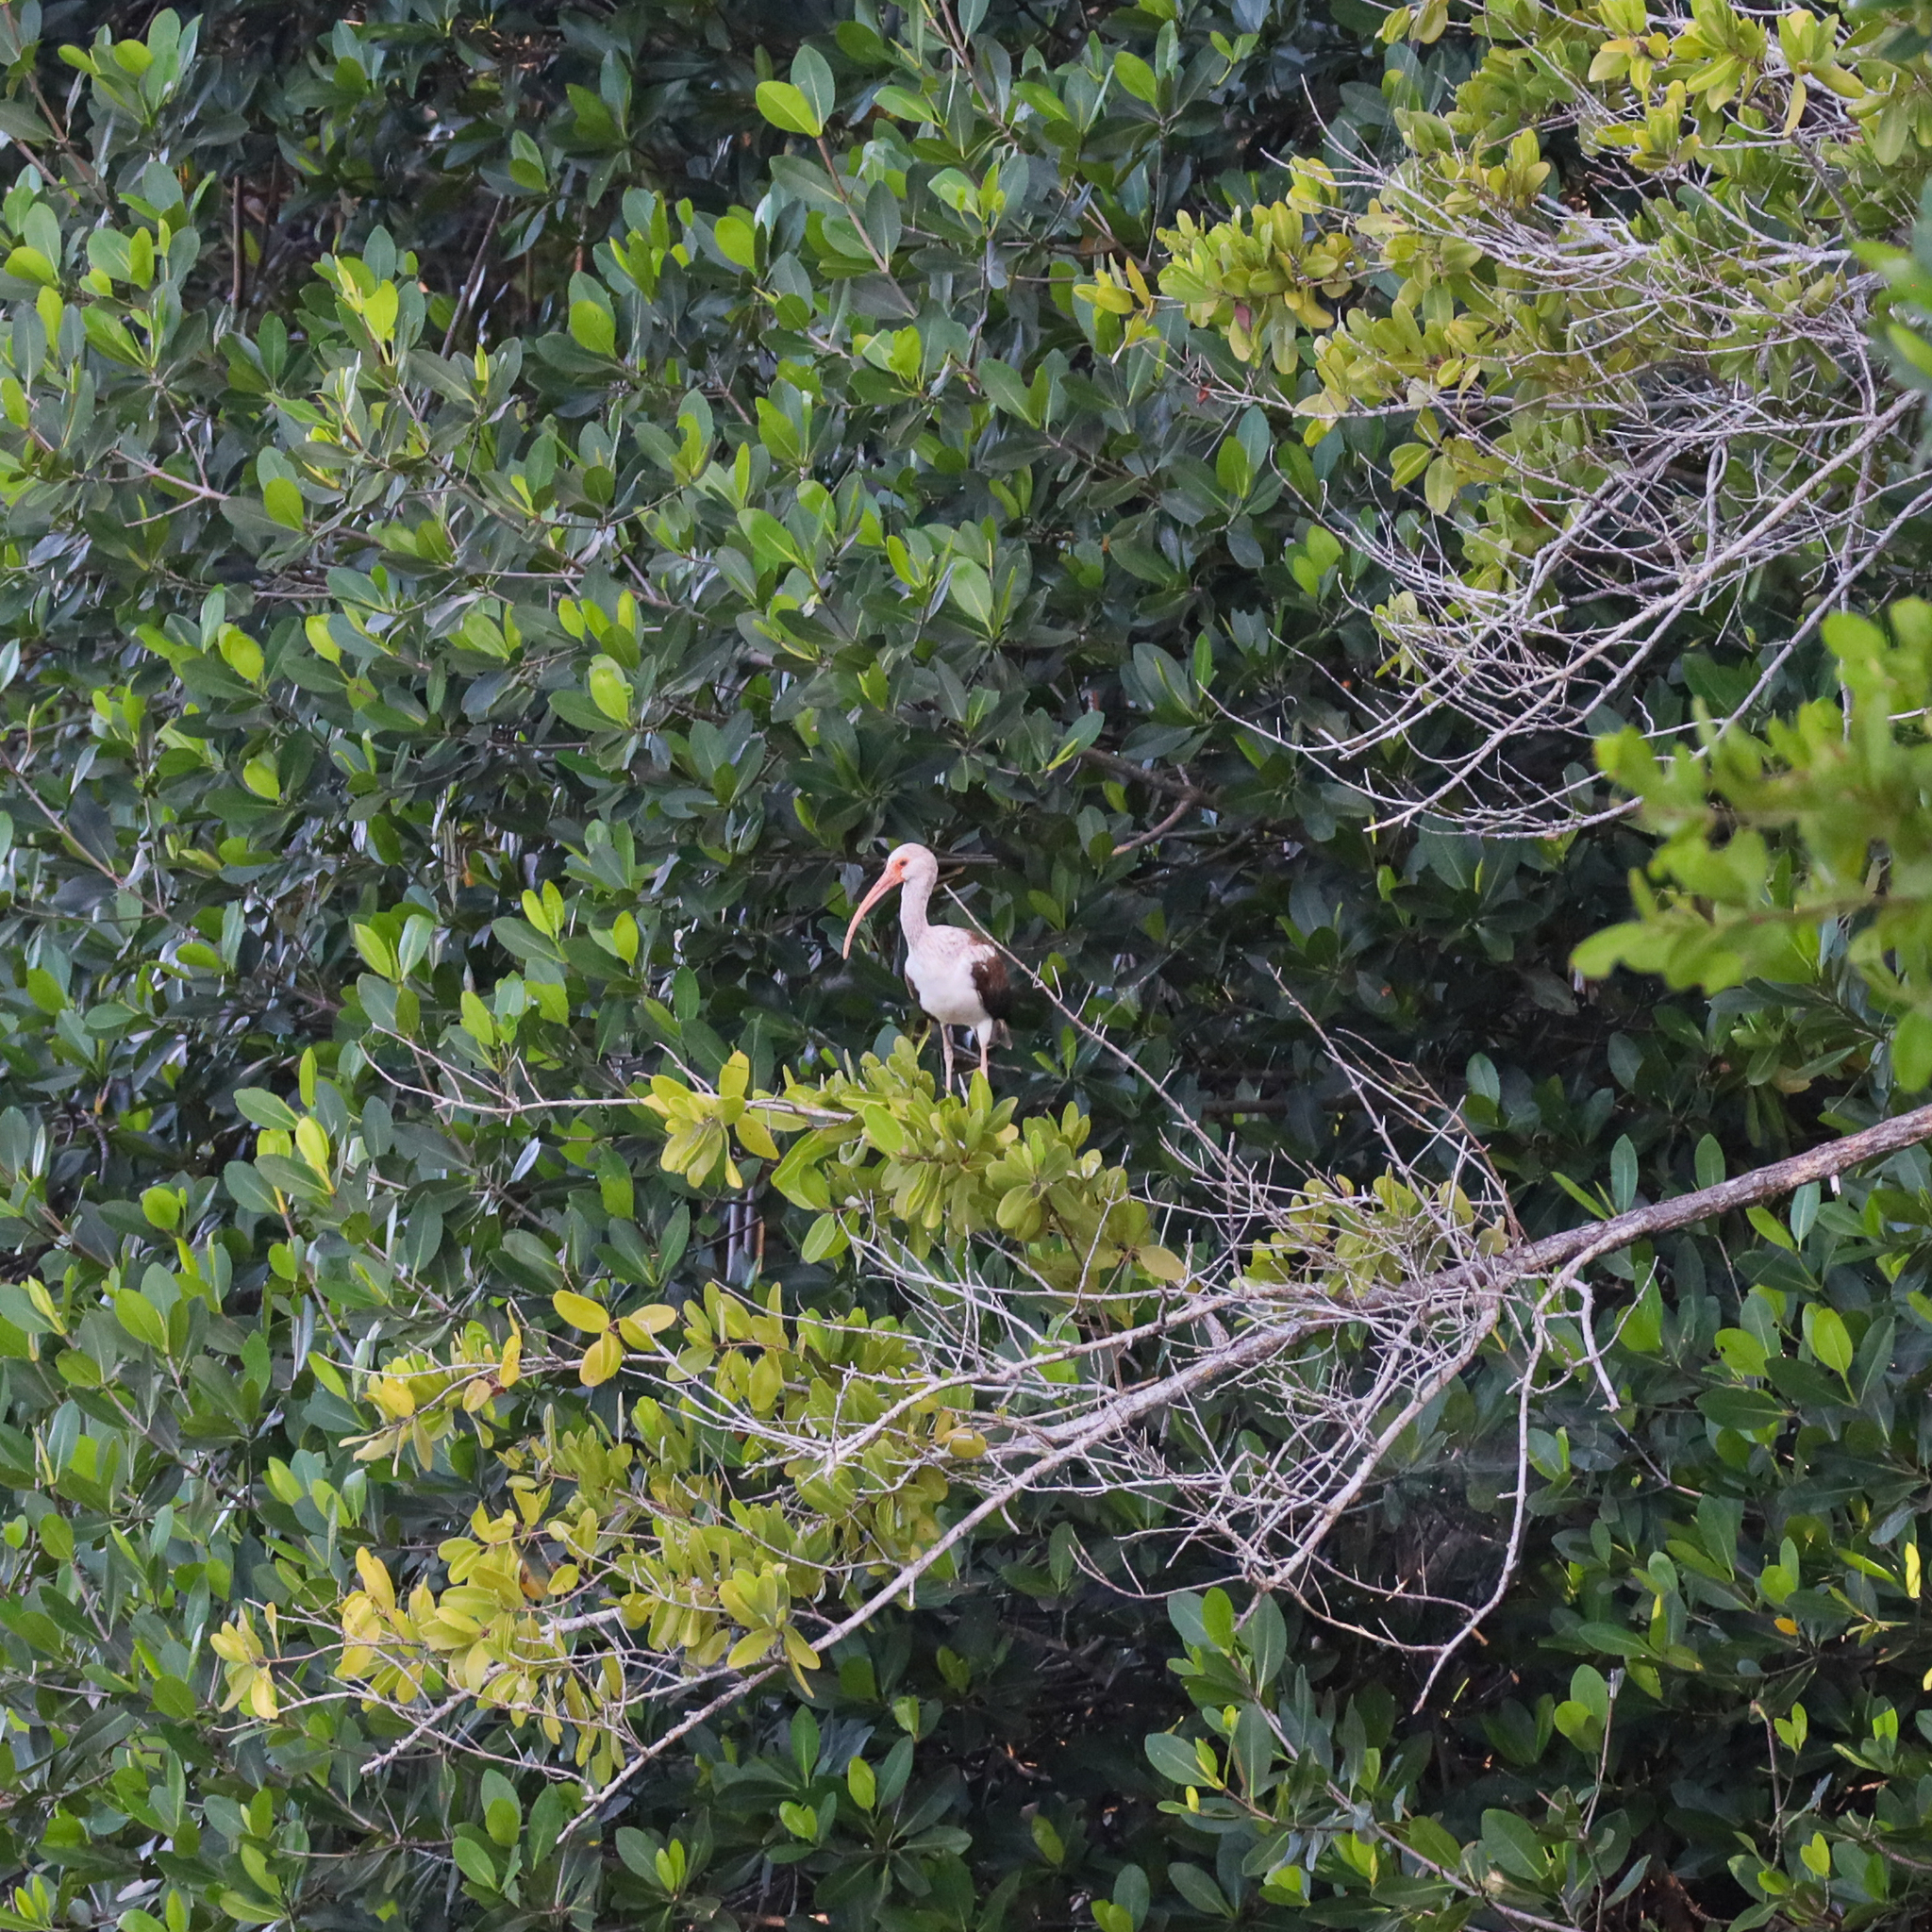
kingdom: Animalia
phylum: Chordata
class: Aves
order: Pelecaniformes
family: Threskiornithidae
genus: Eudocimus
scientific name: Eudocimus albus
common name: White ibis
